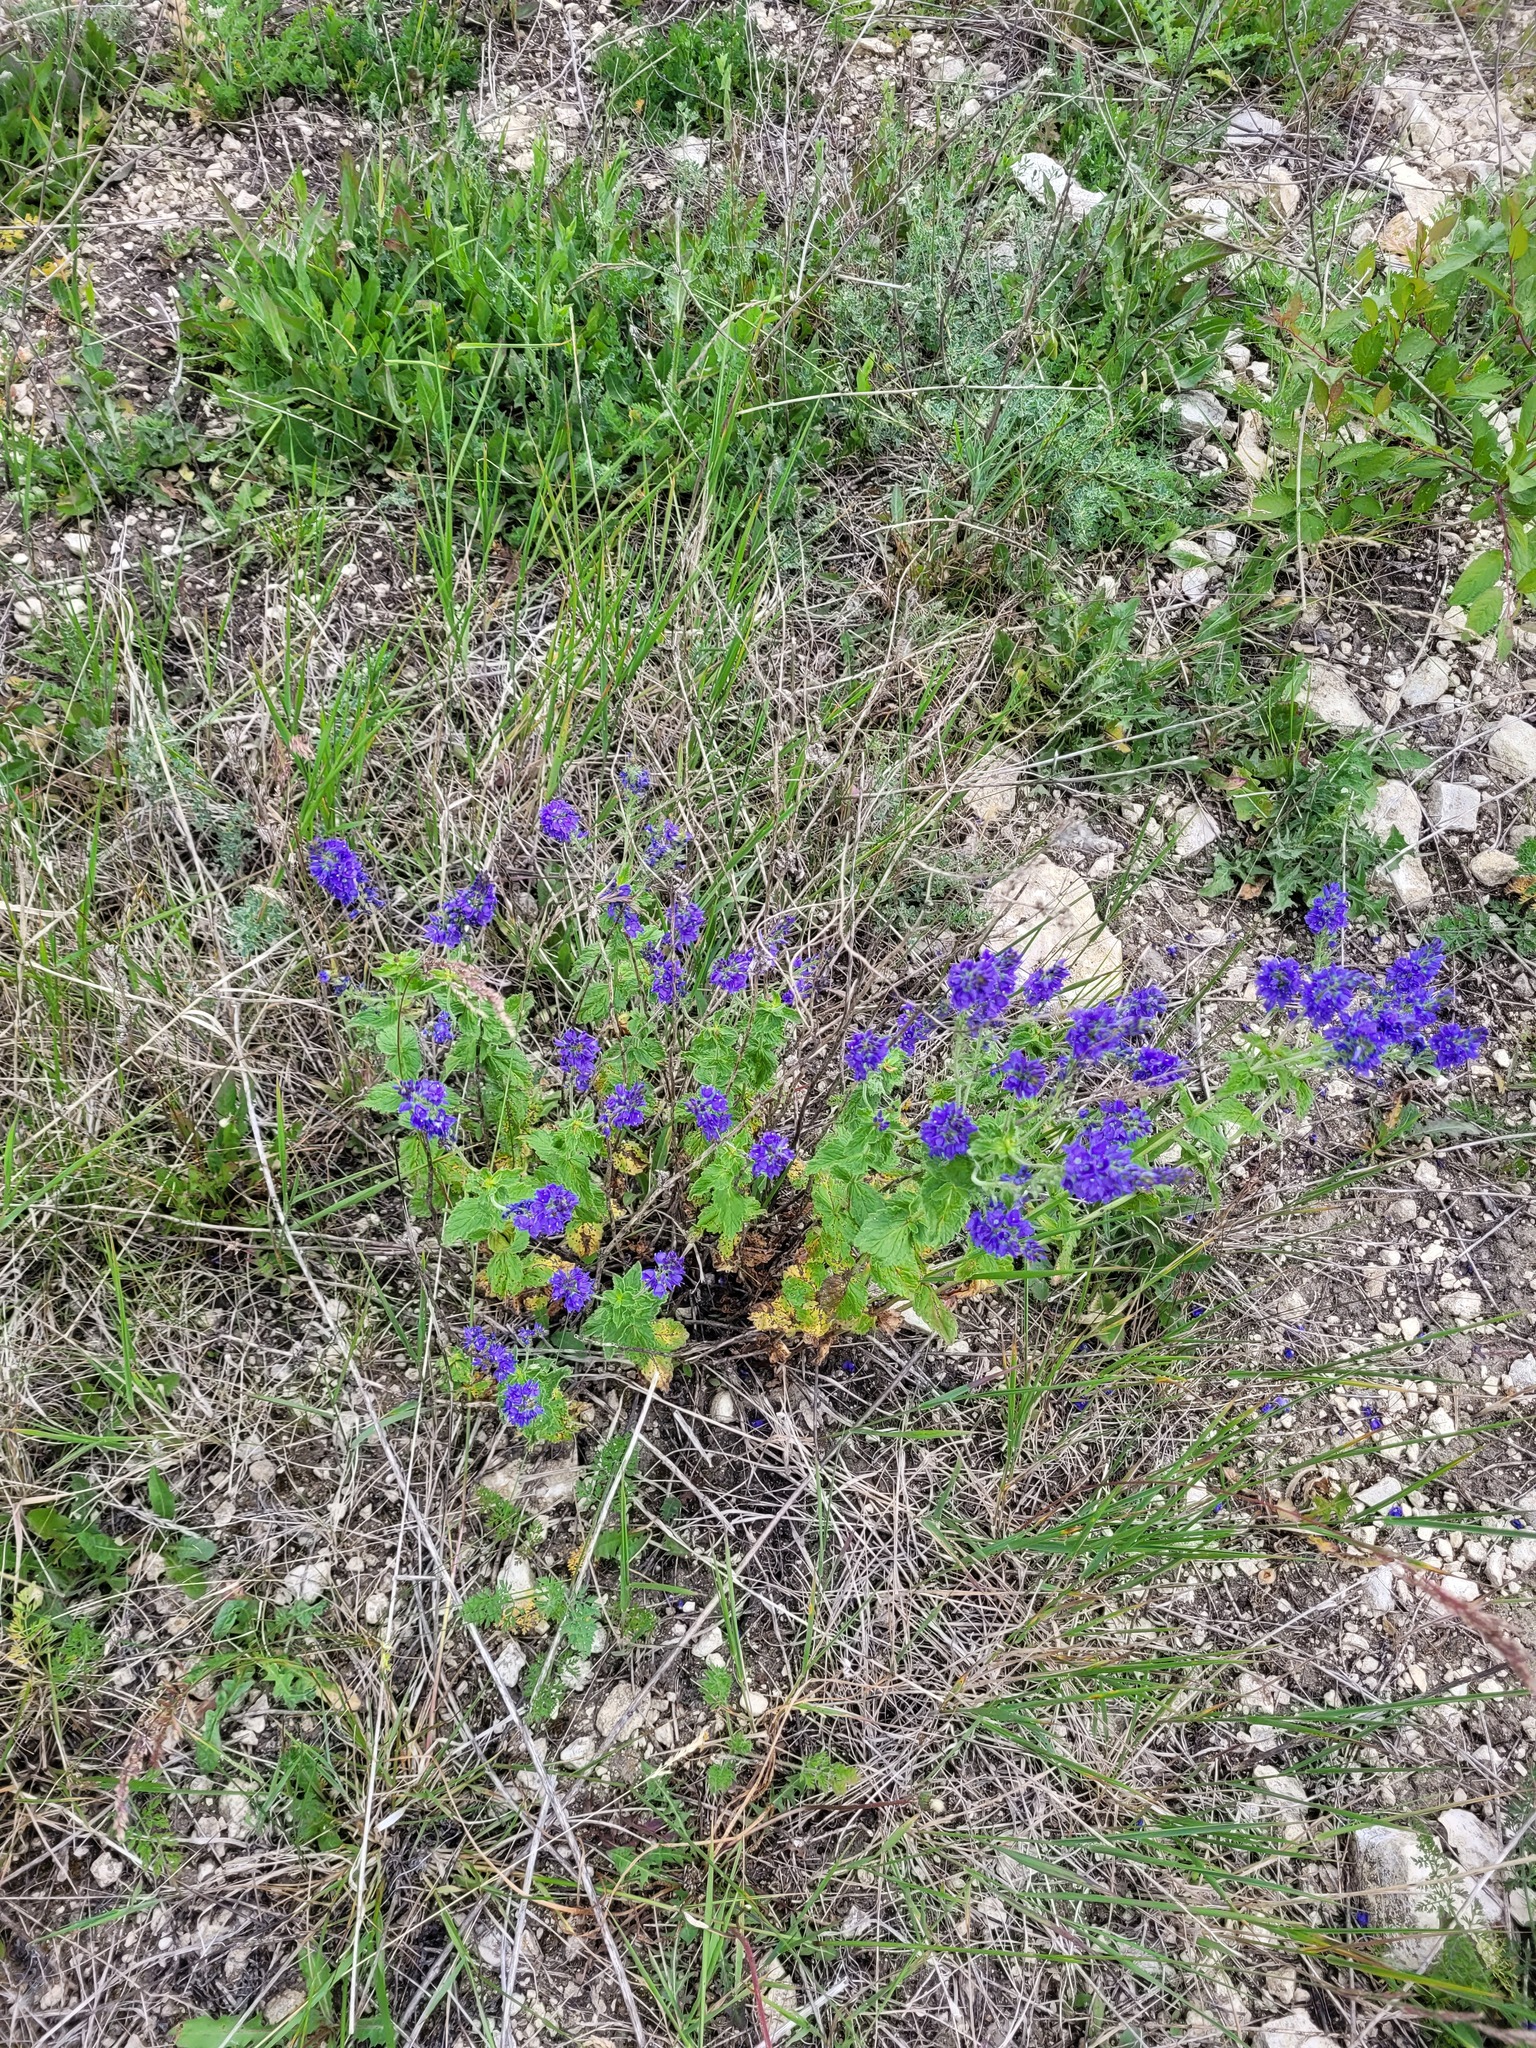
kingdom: Plantae
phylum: Tracheophyta
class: Magnoliopsida
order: Lamiales
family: Plantaginaceae
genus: Veronica
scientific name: Veronica teucrium
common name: Large speedwell
